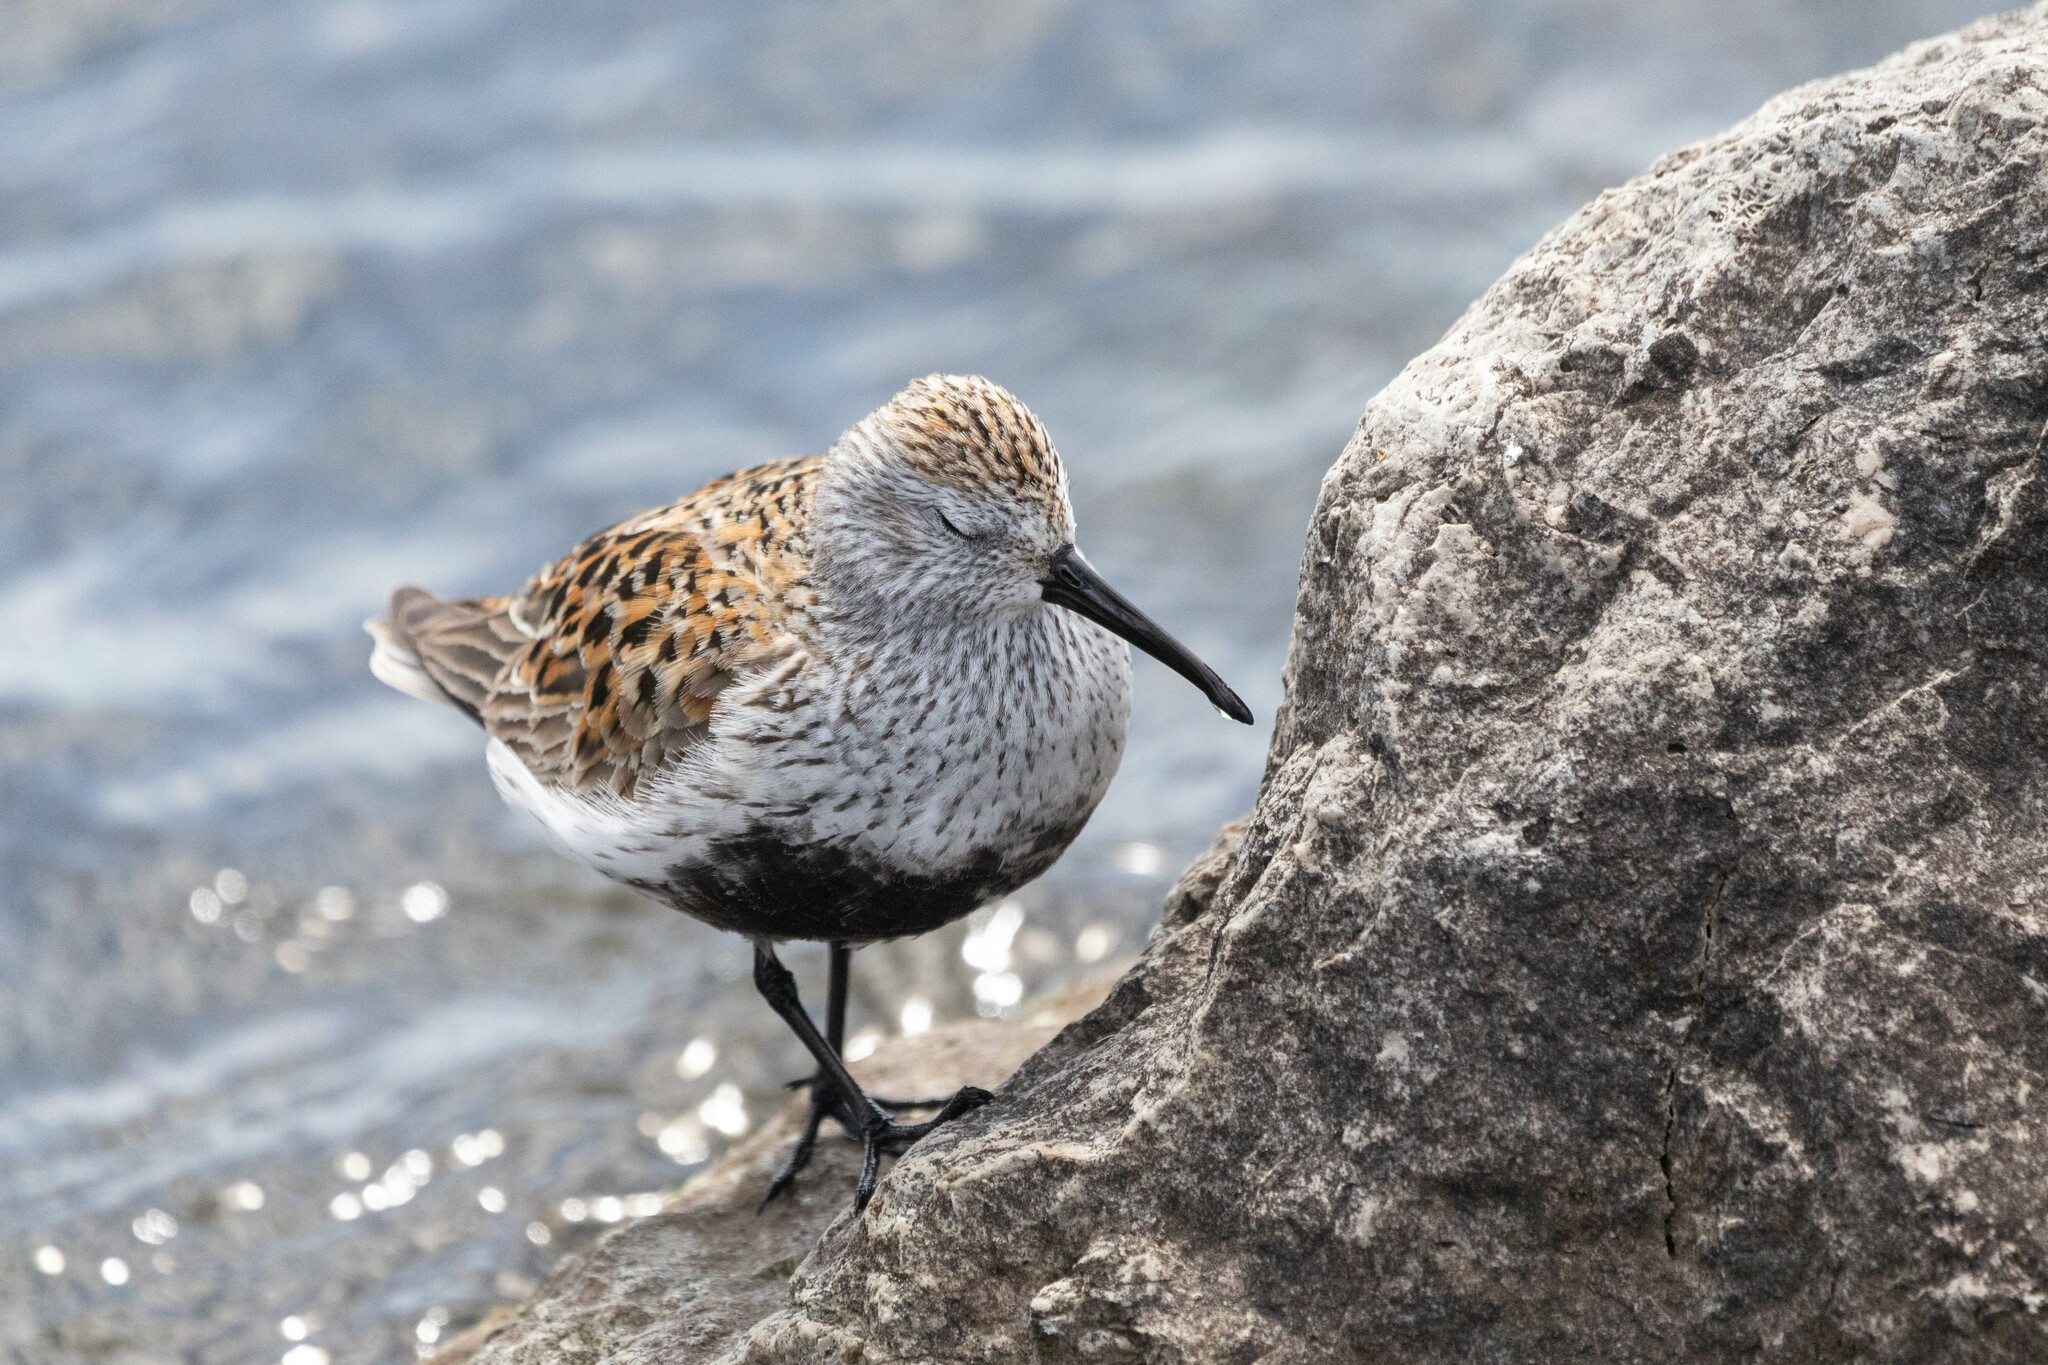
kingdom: Animalia
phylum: Chordata
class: Aves
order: Charadriiformes
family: Scolopacidae
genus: Calidris
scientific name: Calidris alpina
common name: Dunlin
